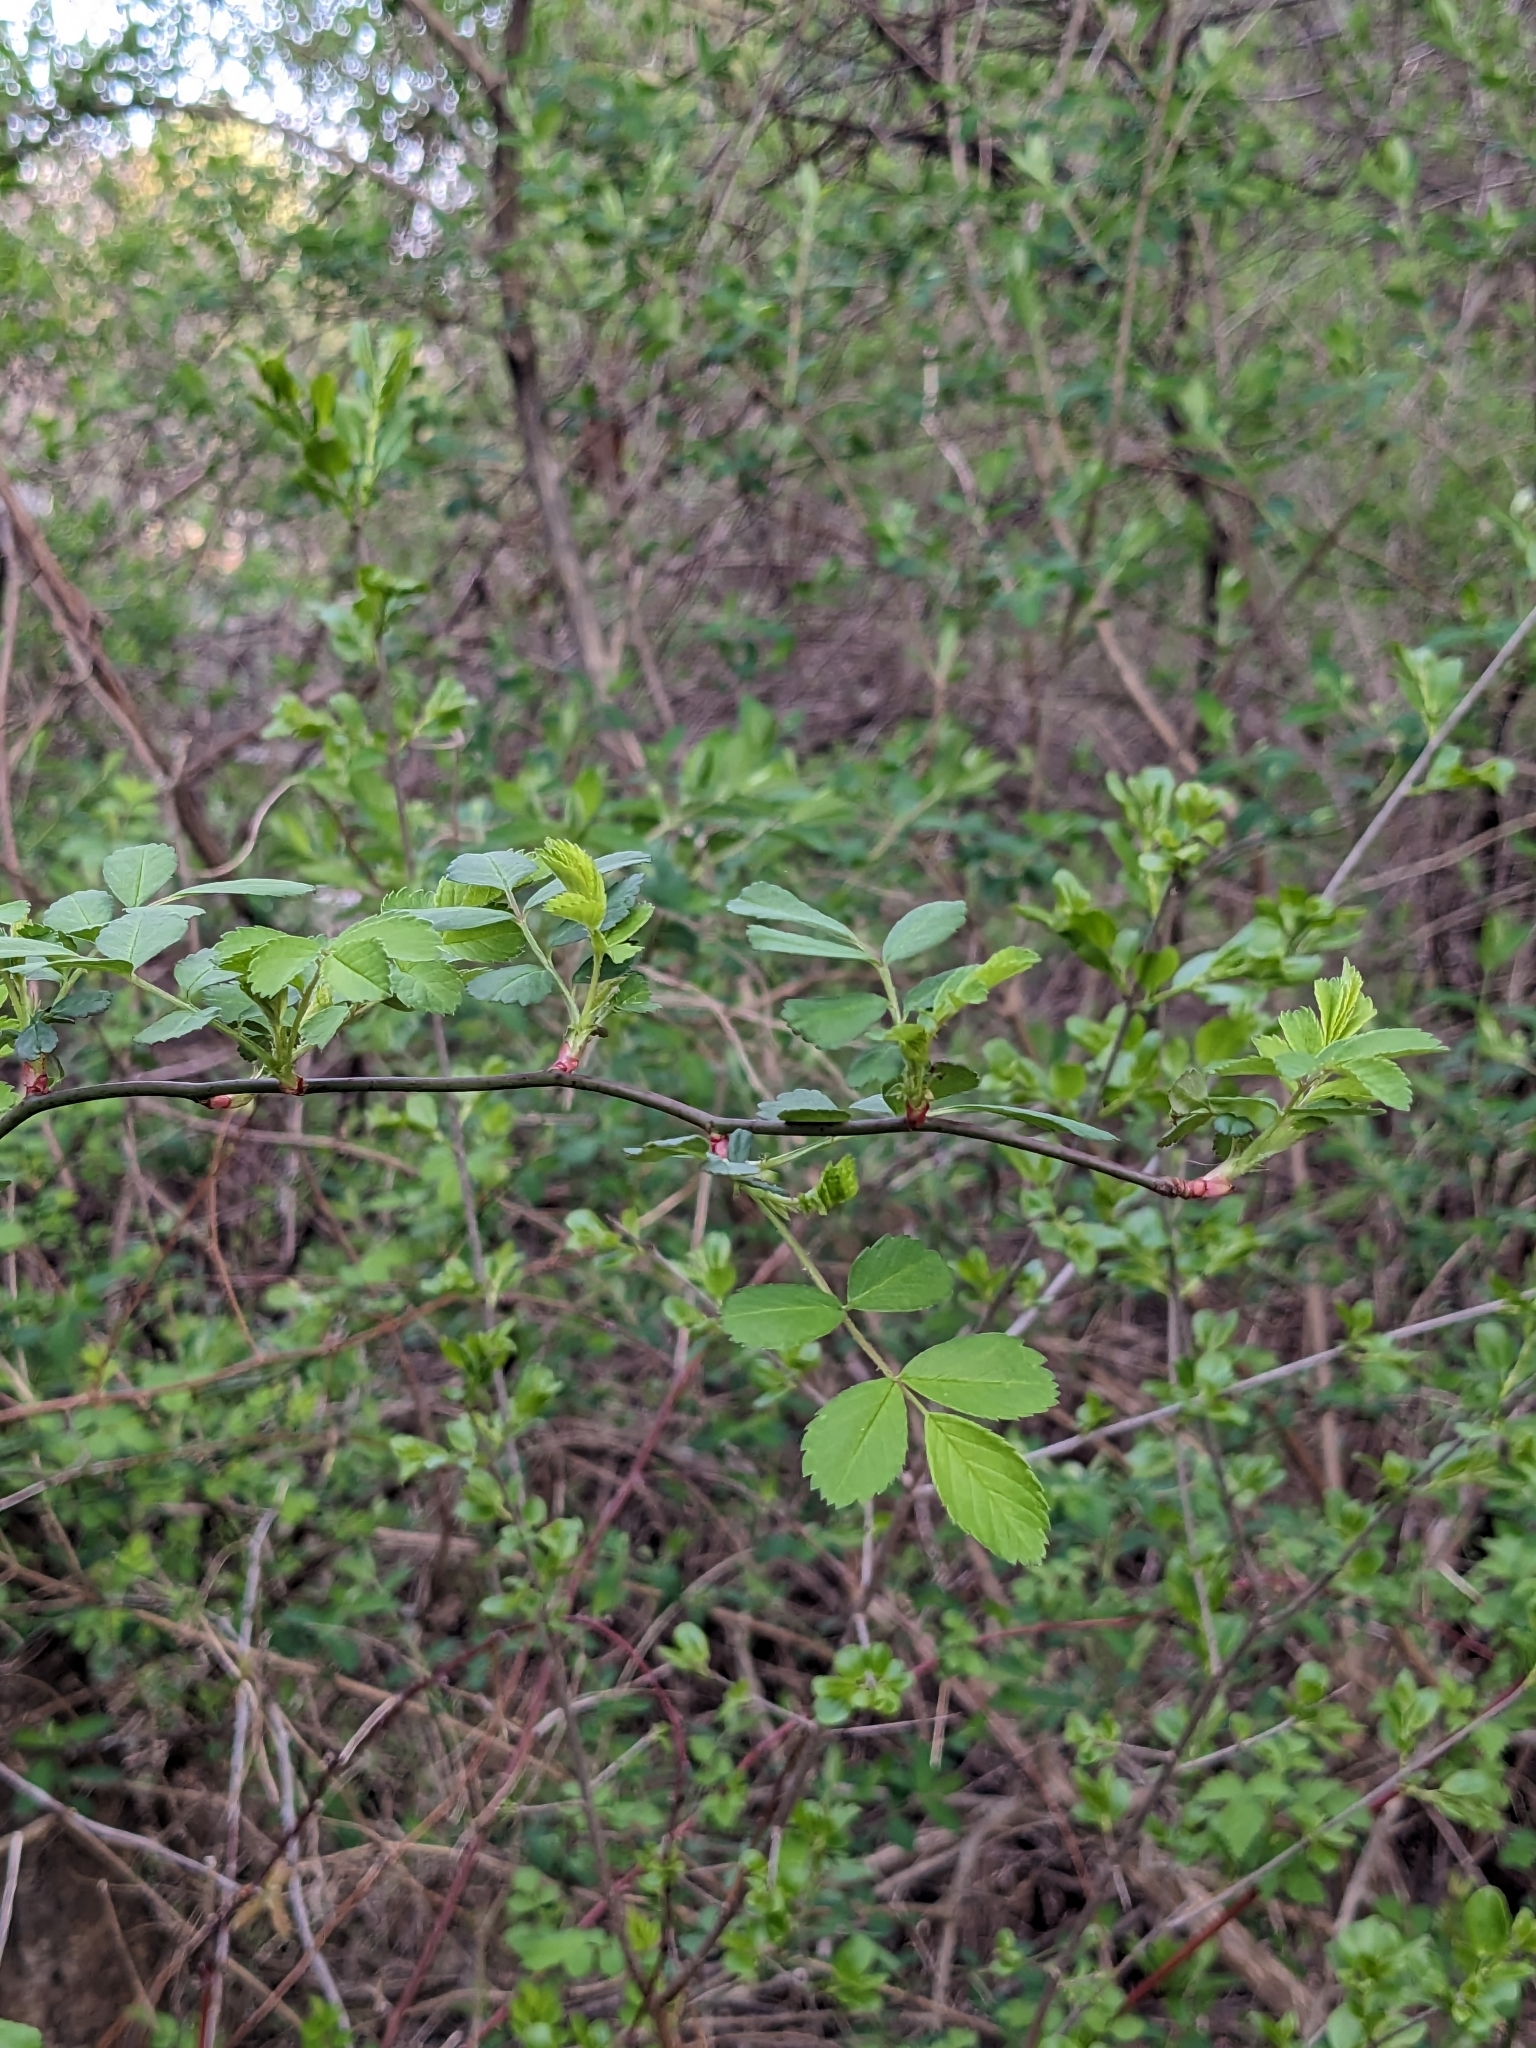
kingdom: Plantae
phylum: Tracheophyta
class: Magnoliopsida
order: Rosales
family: Rosaceae
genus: Rosa
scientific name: Rosa multiflora
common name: Multiflora rose
